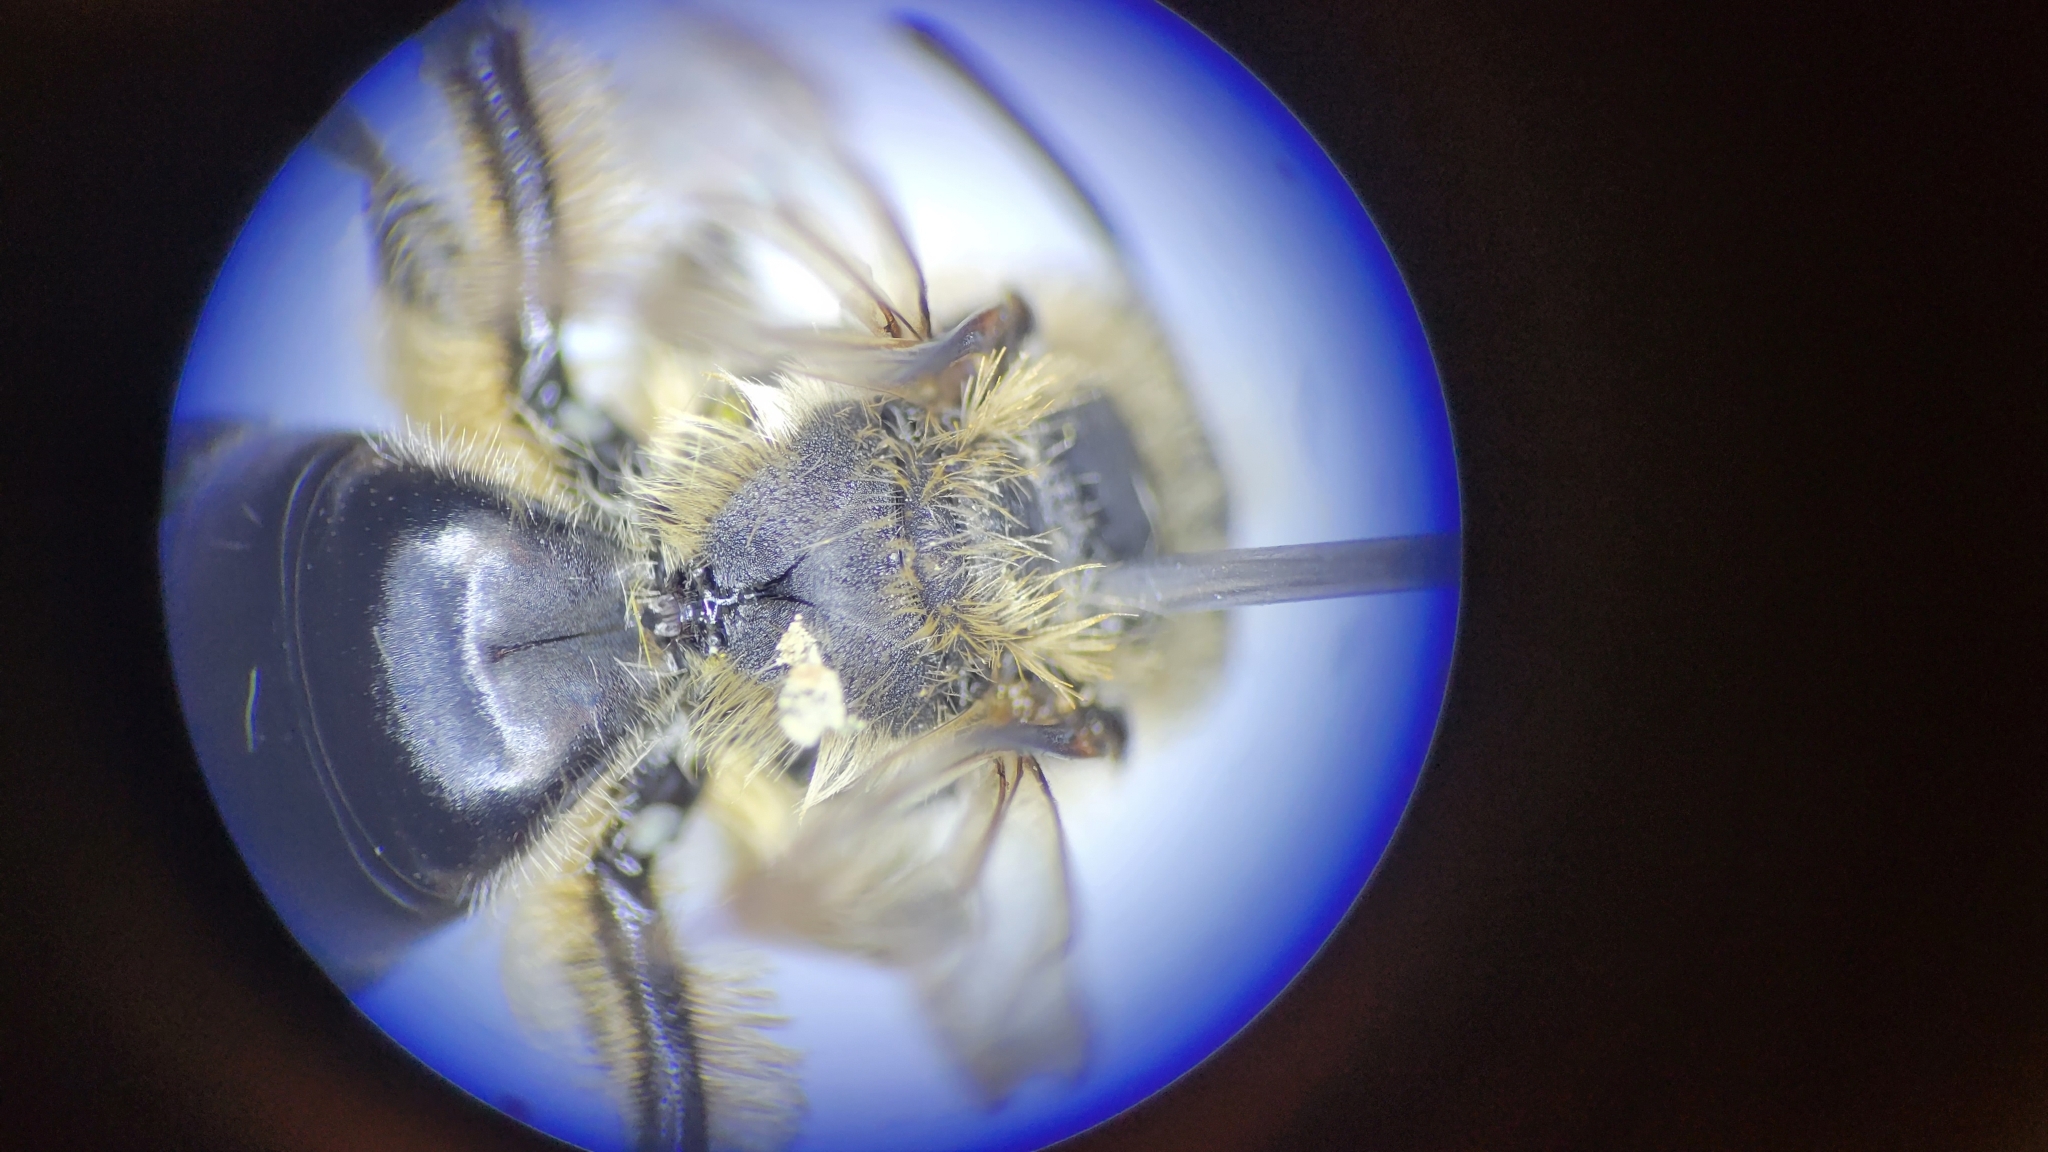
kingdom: Animalia
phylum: Arthropoda
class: Insecta
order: Hymenoptera
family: Andrenidae
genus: Andrena
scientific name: Andrena braccata
